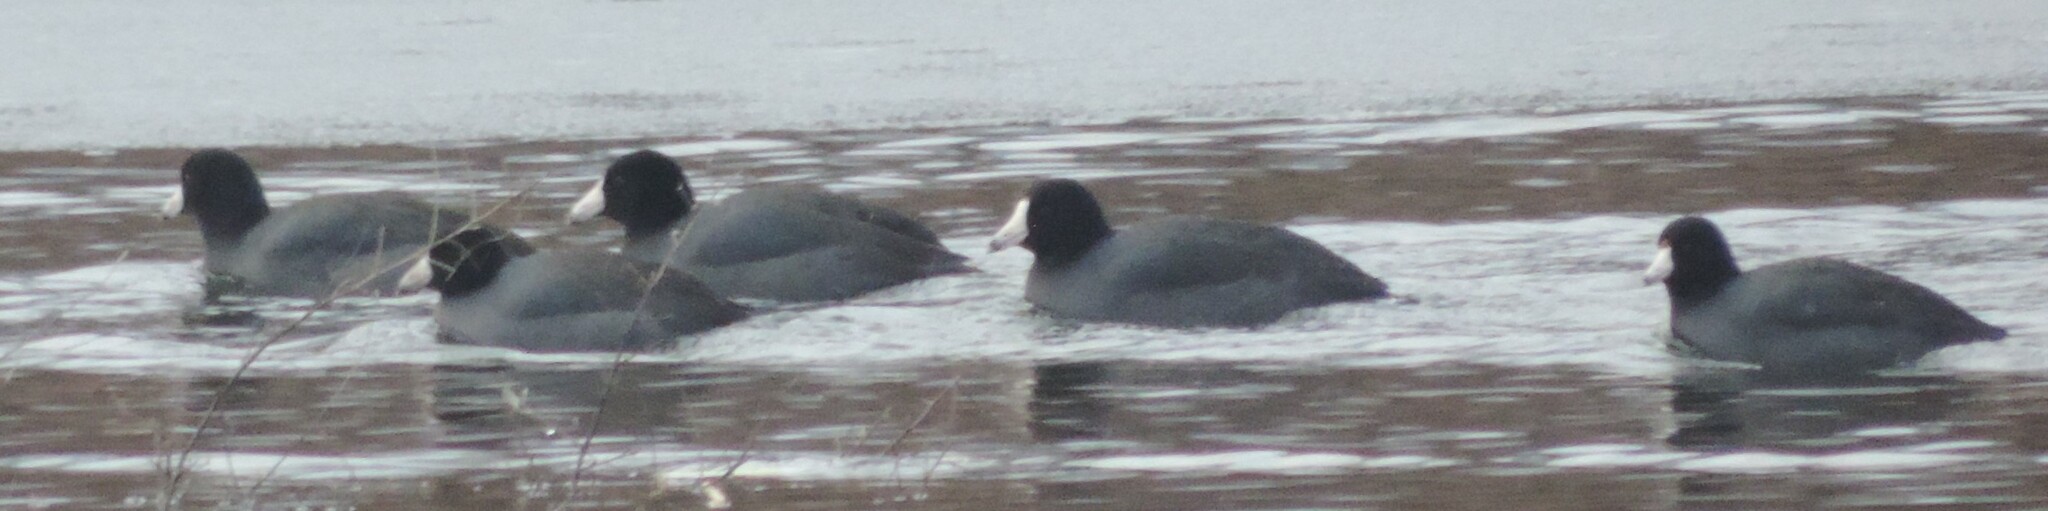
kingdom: Animalia
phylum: Chordata
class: Aves
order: Gruiformes
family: Rallidae
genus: Fulica
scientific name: Fulica americana
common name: American coot
